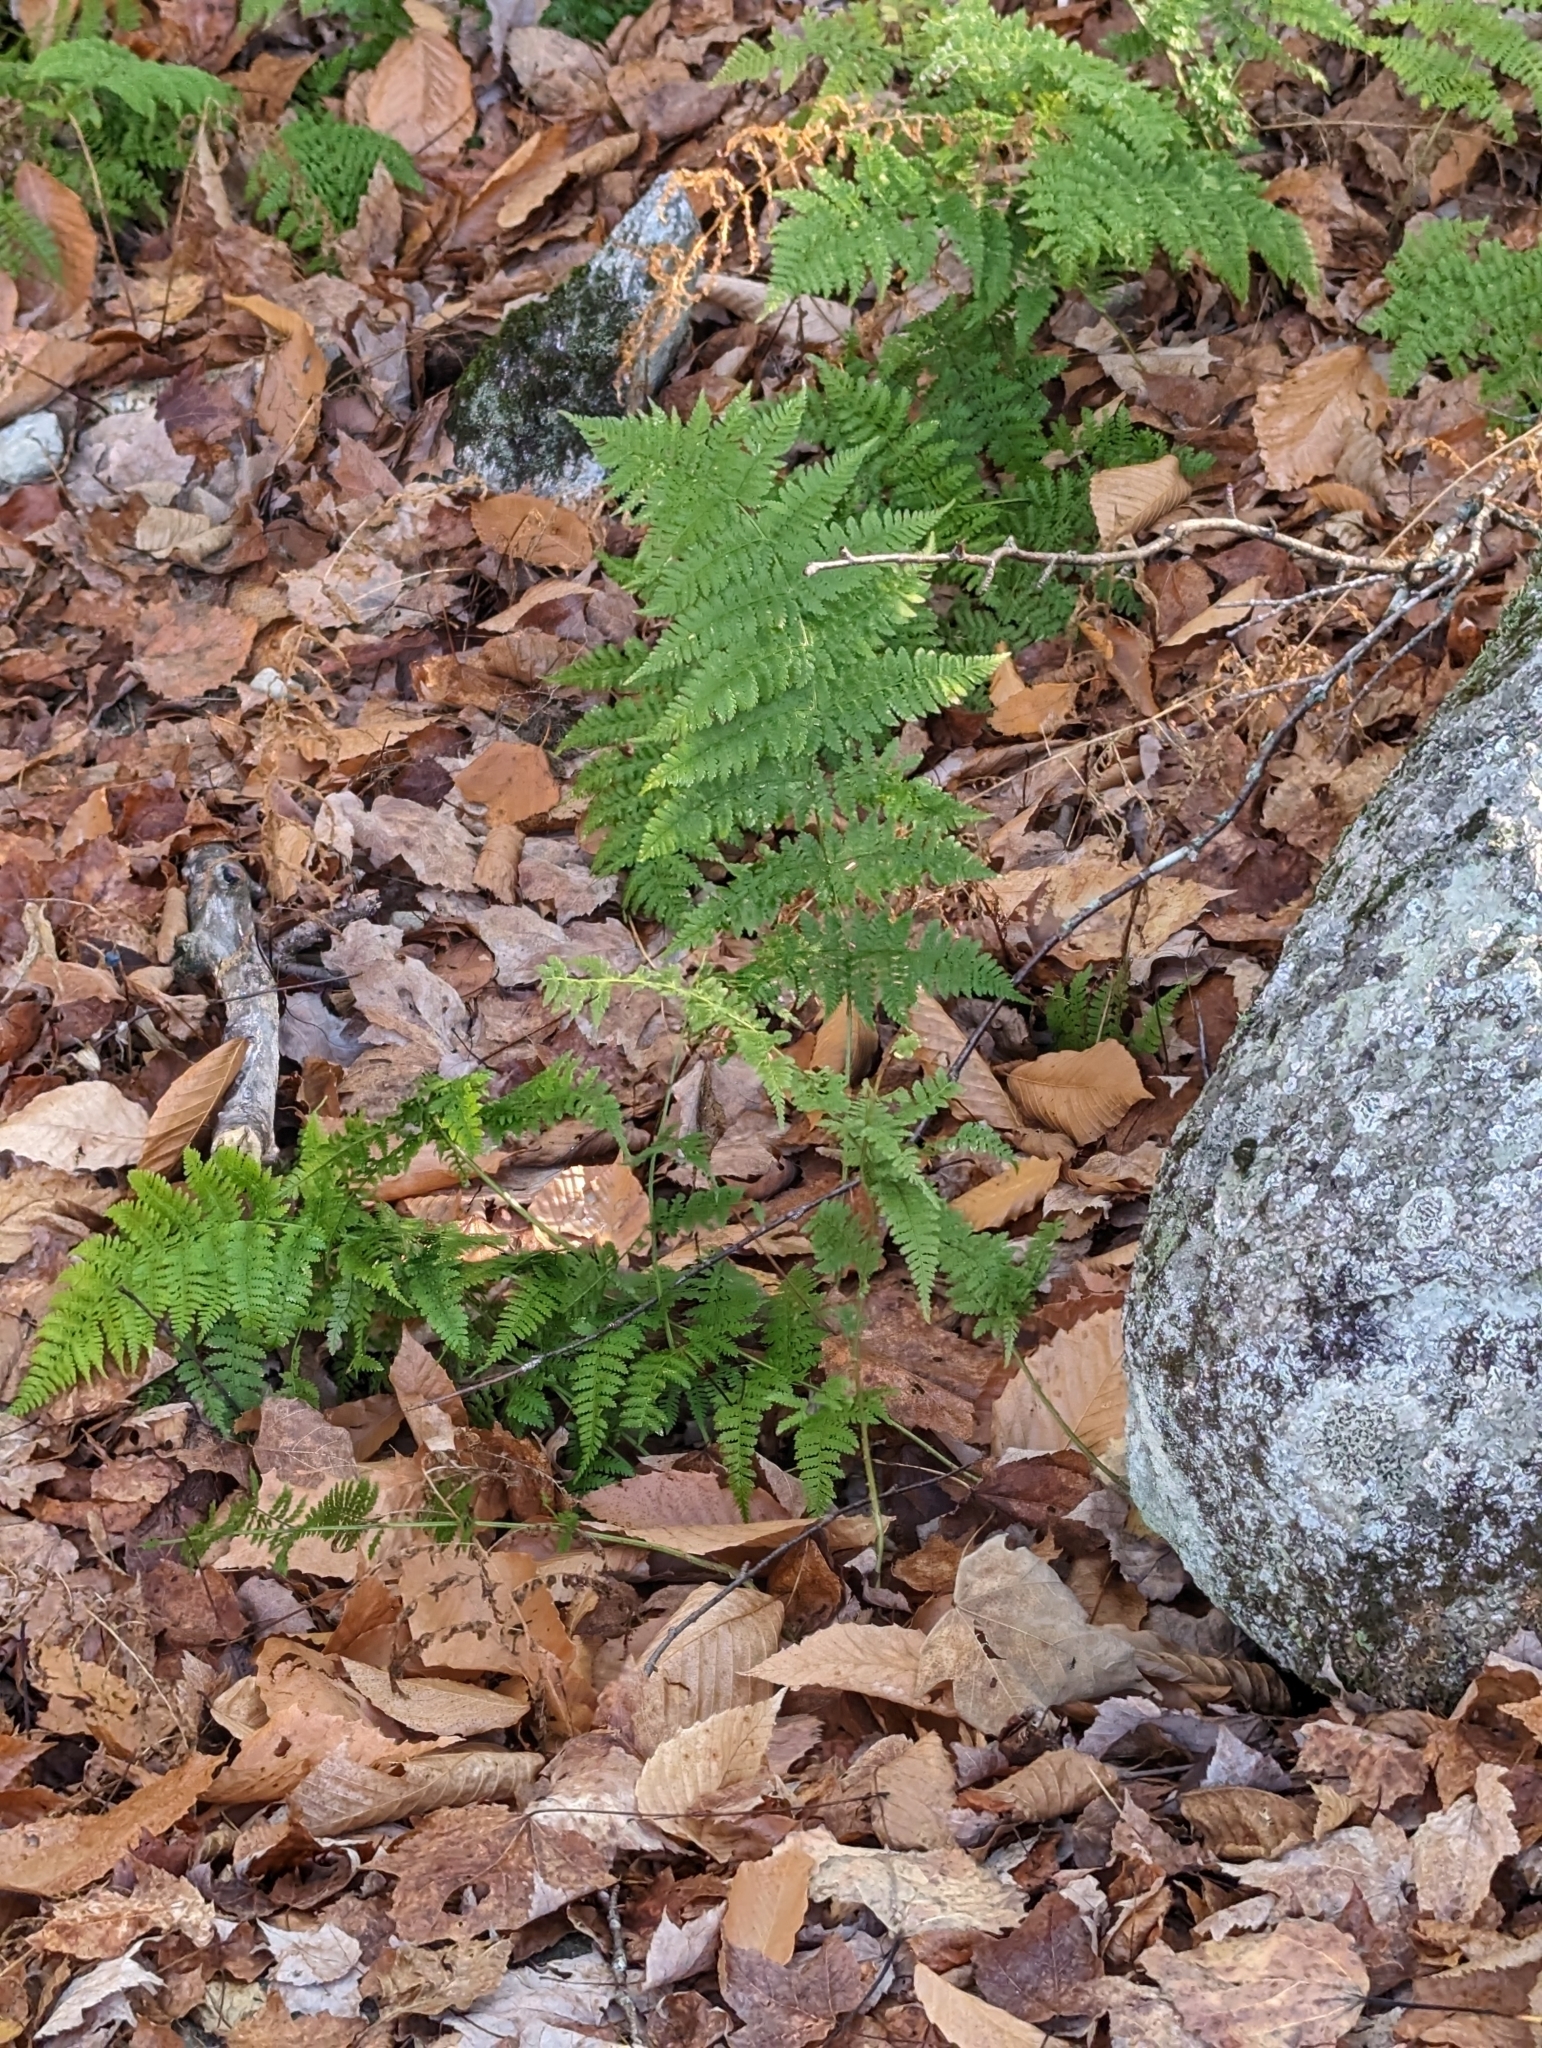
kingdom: Plantae
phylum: Tracheophyta
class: Polypodiopsida
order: Polypodiales
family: Dryopteridaceae
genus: Dryopteris
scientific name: Dryopteris intermedia
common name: Evergreen wood fern
